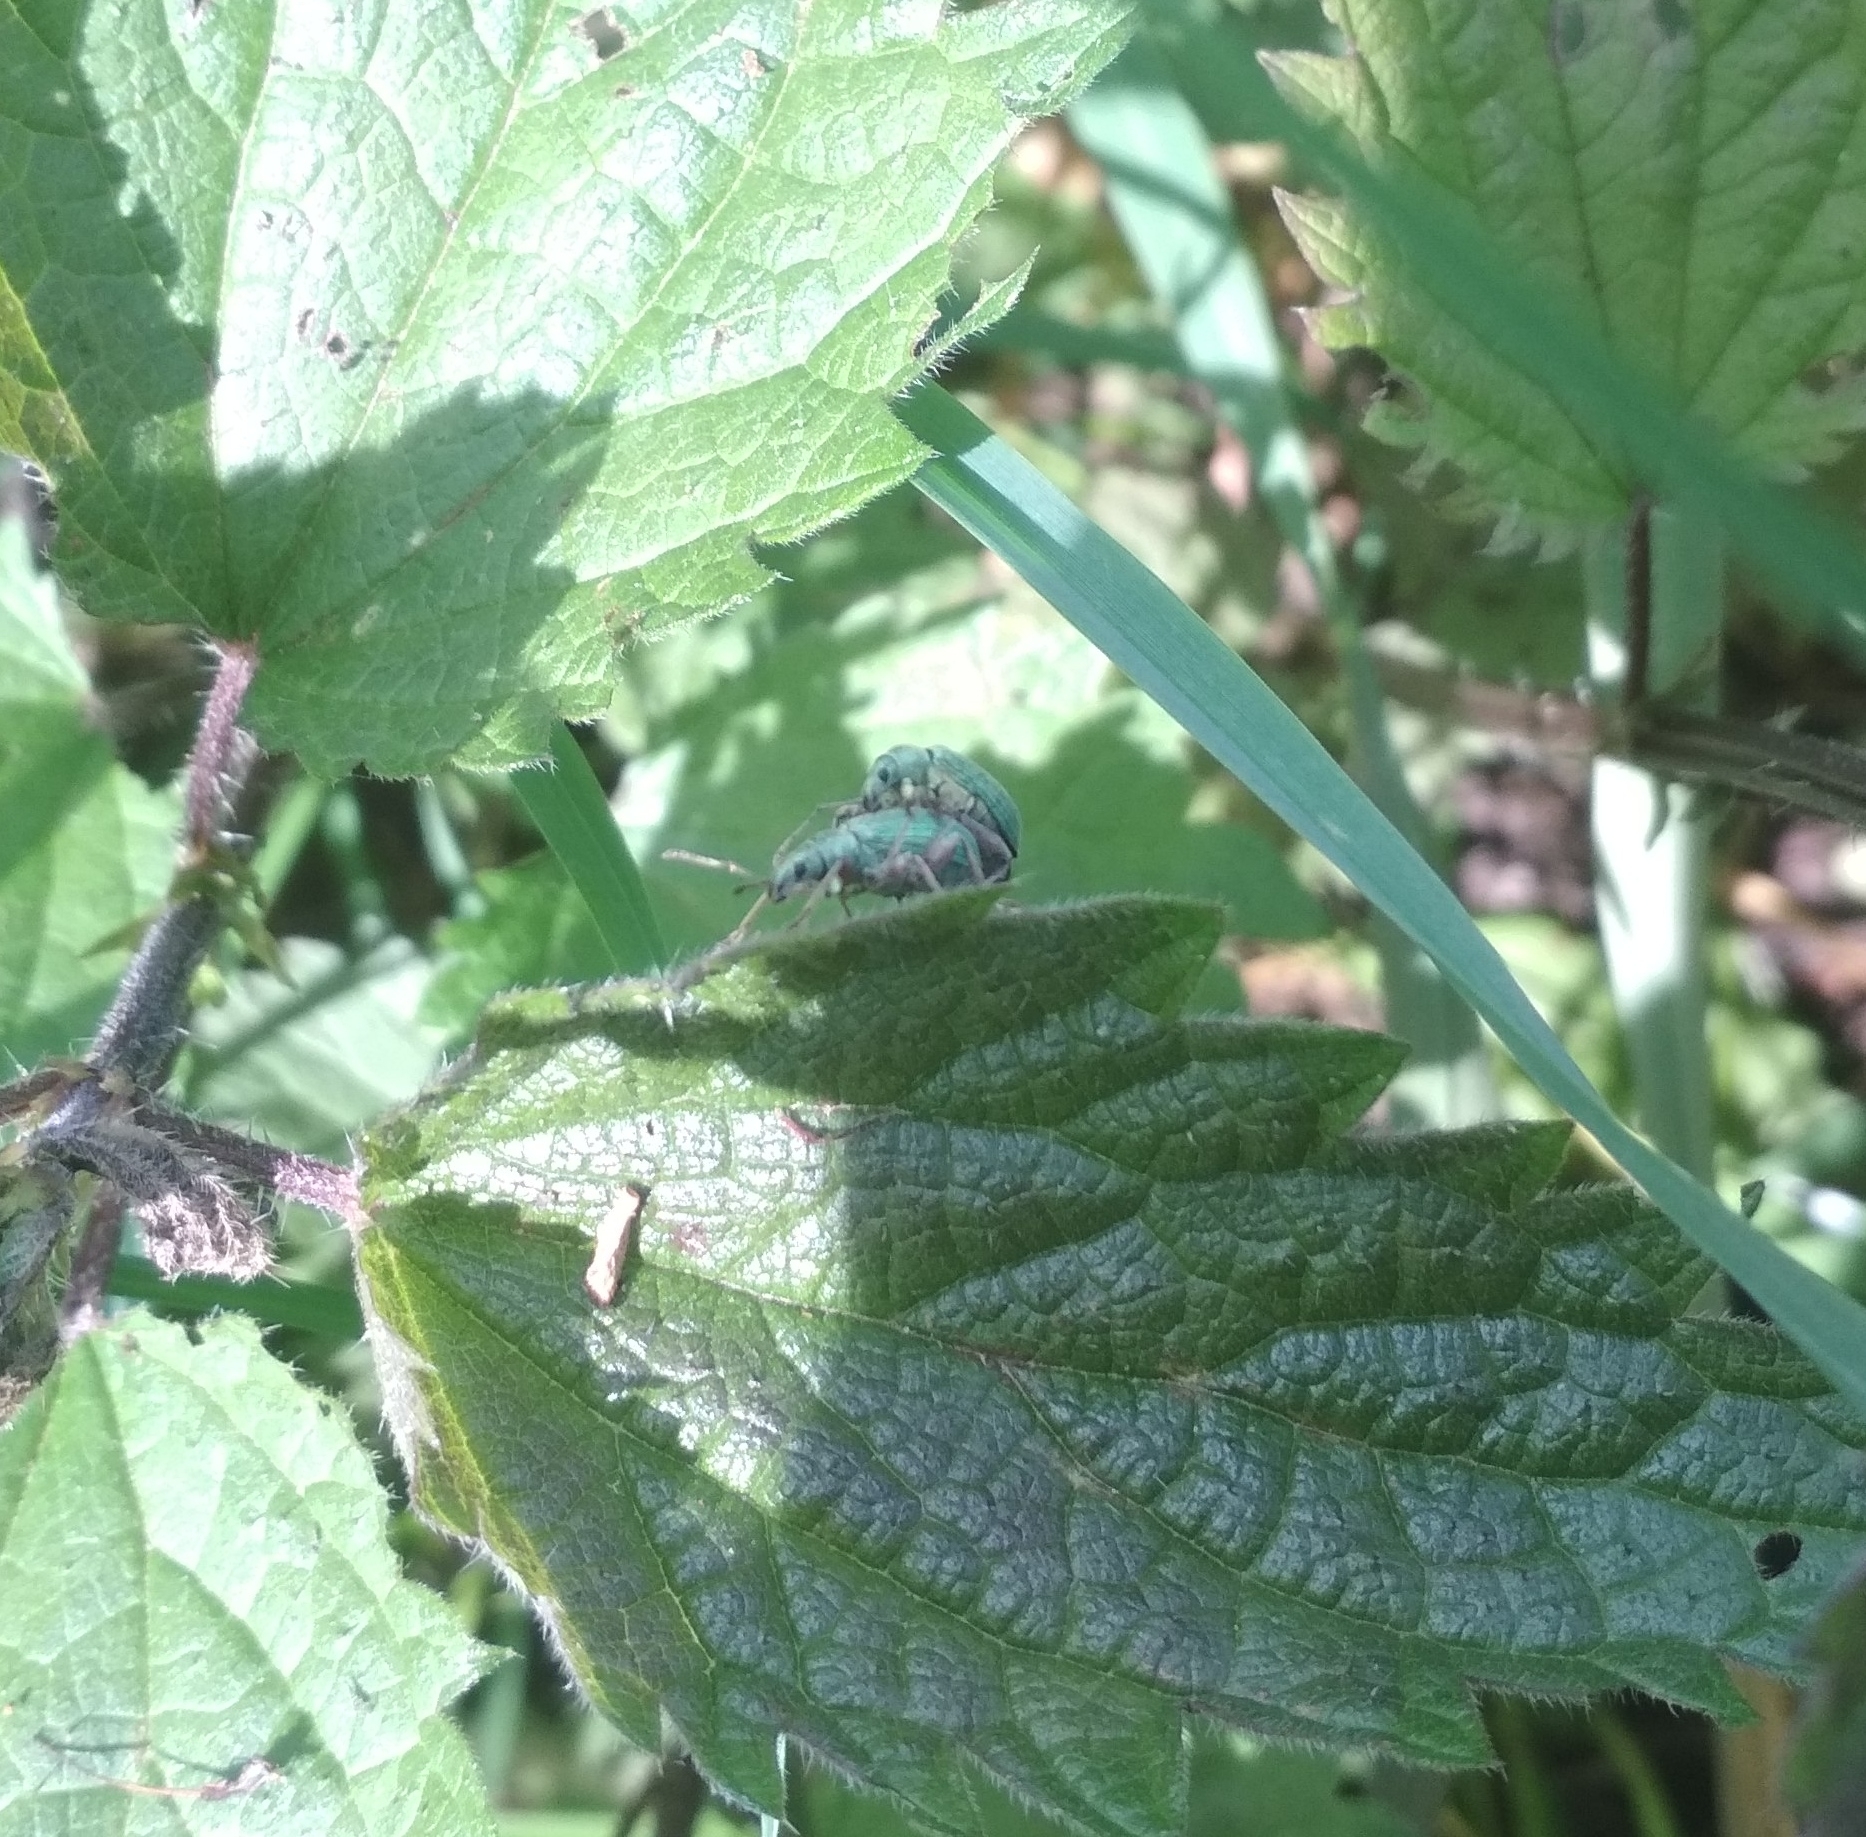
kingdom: Animalia
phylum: Arthropoda
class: Insecta
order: Coleoptera
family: Curculionidae
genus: Phyllobius
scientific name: Phyllobius pomaceus
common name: Green nettle weevil
